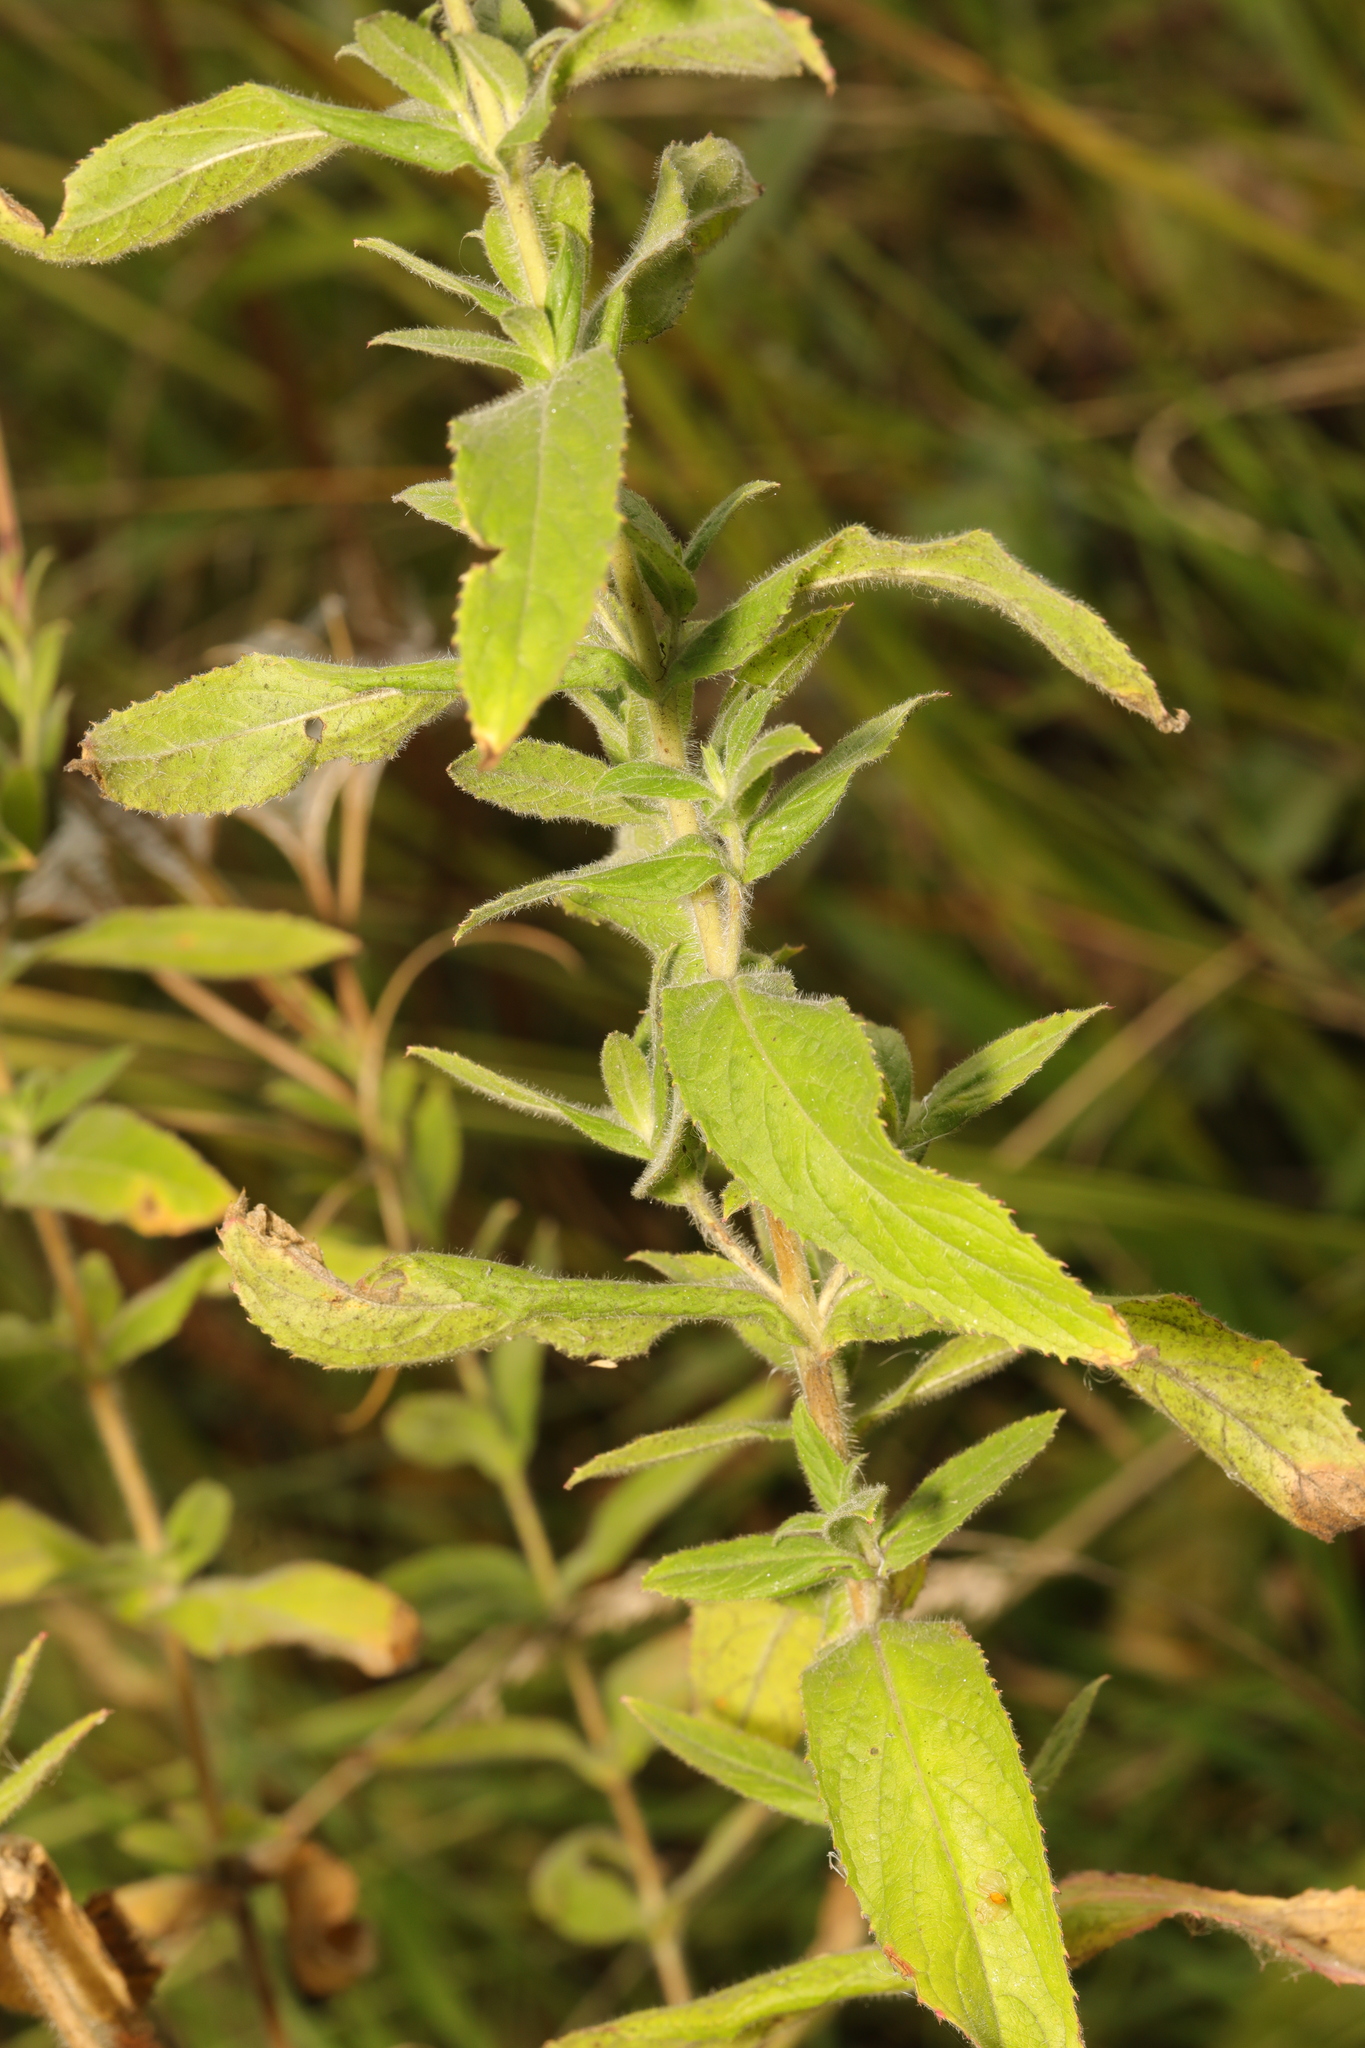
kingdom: Plantae
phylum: Tracheophyta
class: Magnoliopsida
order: Myrtales
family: Onagraceae
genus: Epilobium
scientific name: Epilobium hirsutum
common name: Great willowherb
